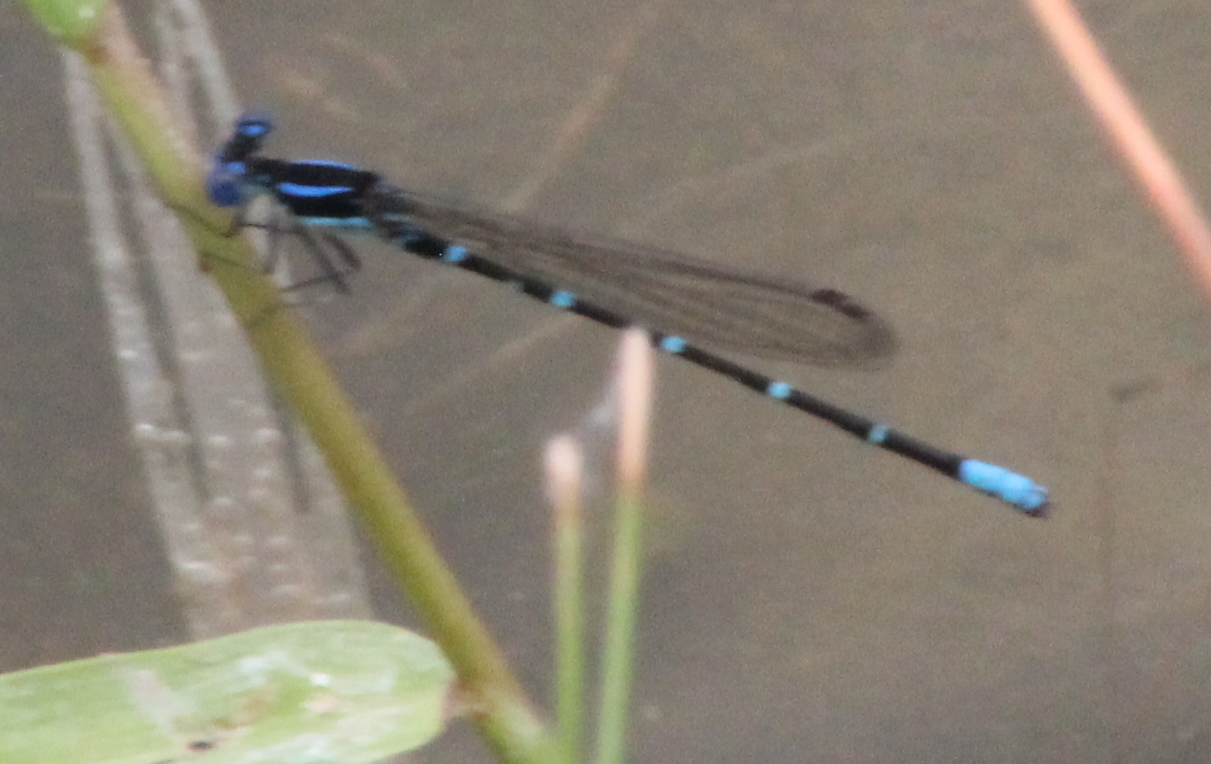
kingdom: Animalia
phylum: Arthropoda
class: Insecta
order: Odonata
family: Coenagrionidae
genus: Argia
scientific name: Argia sedula
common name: Blue-ringed dancer
